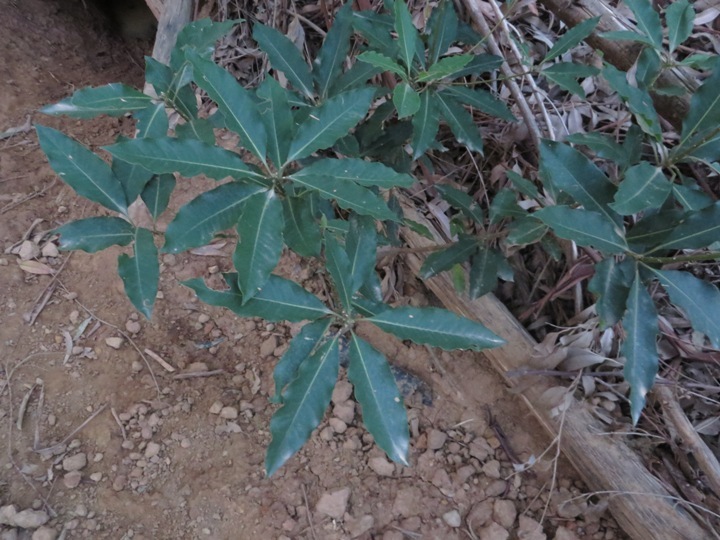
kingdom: Plantae
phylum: Tracheophyta
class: Magnoliopsida
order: Apiales
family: Pittosporaceae
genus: Pittosporum
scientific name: Pittosporum undulatum
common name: Australian cheesewood
